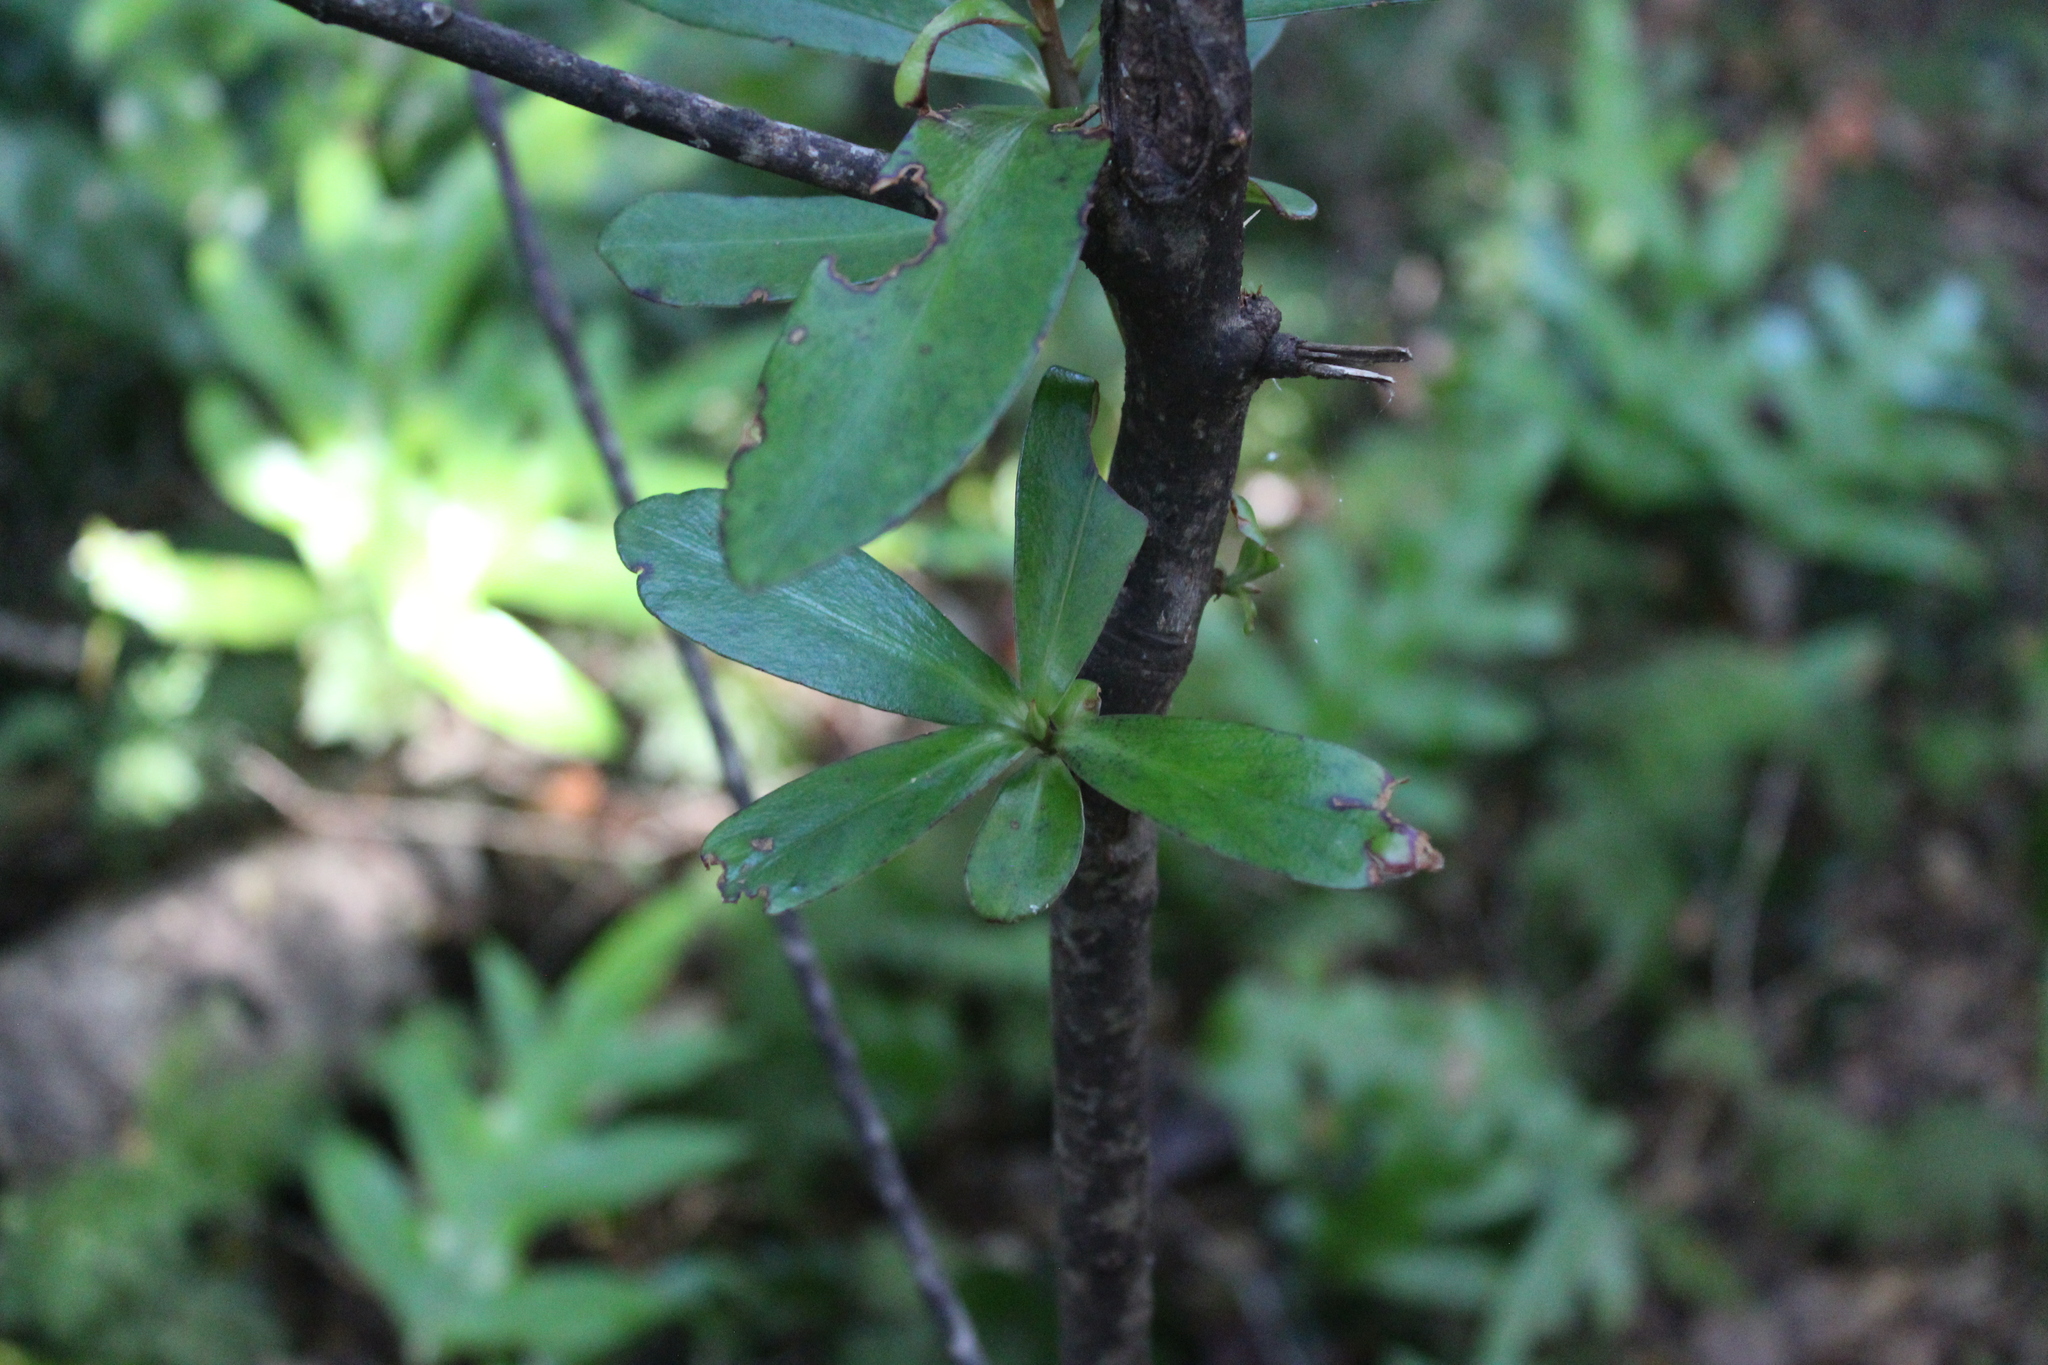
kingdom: Plantae
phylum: Tracheophyta
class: Magnoliopsida
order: Ericales
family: Primulaceae
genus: Myrsine
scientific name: Myrsine salicina
